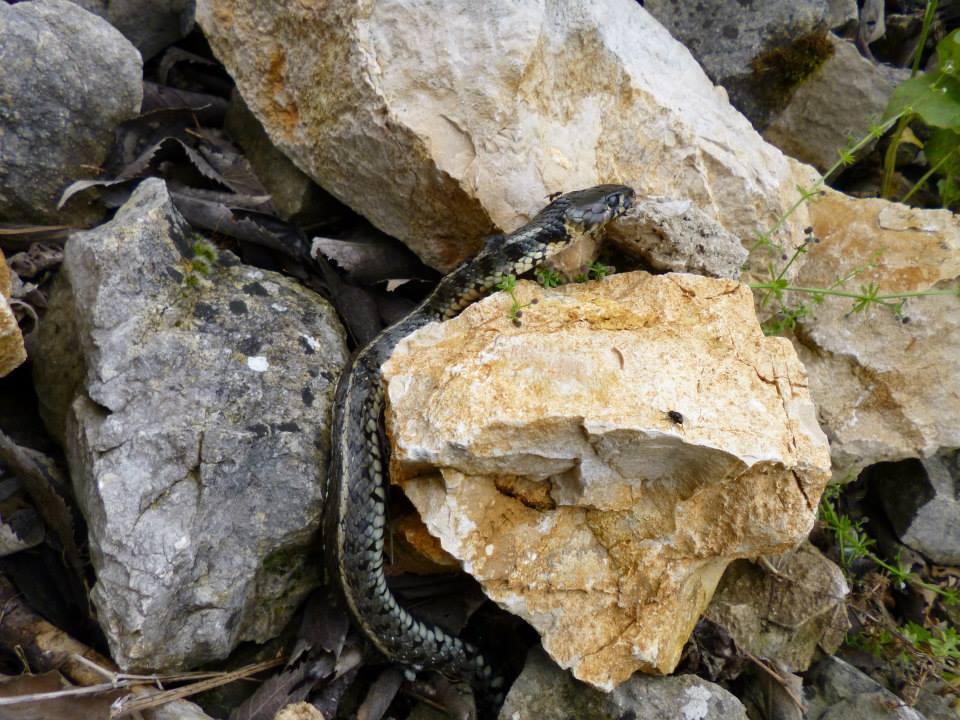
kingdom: Animalia
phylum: Chordata
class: Squamata
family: Colubridae
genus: Natrix
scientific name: Natrix natrix
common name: Grass snake
